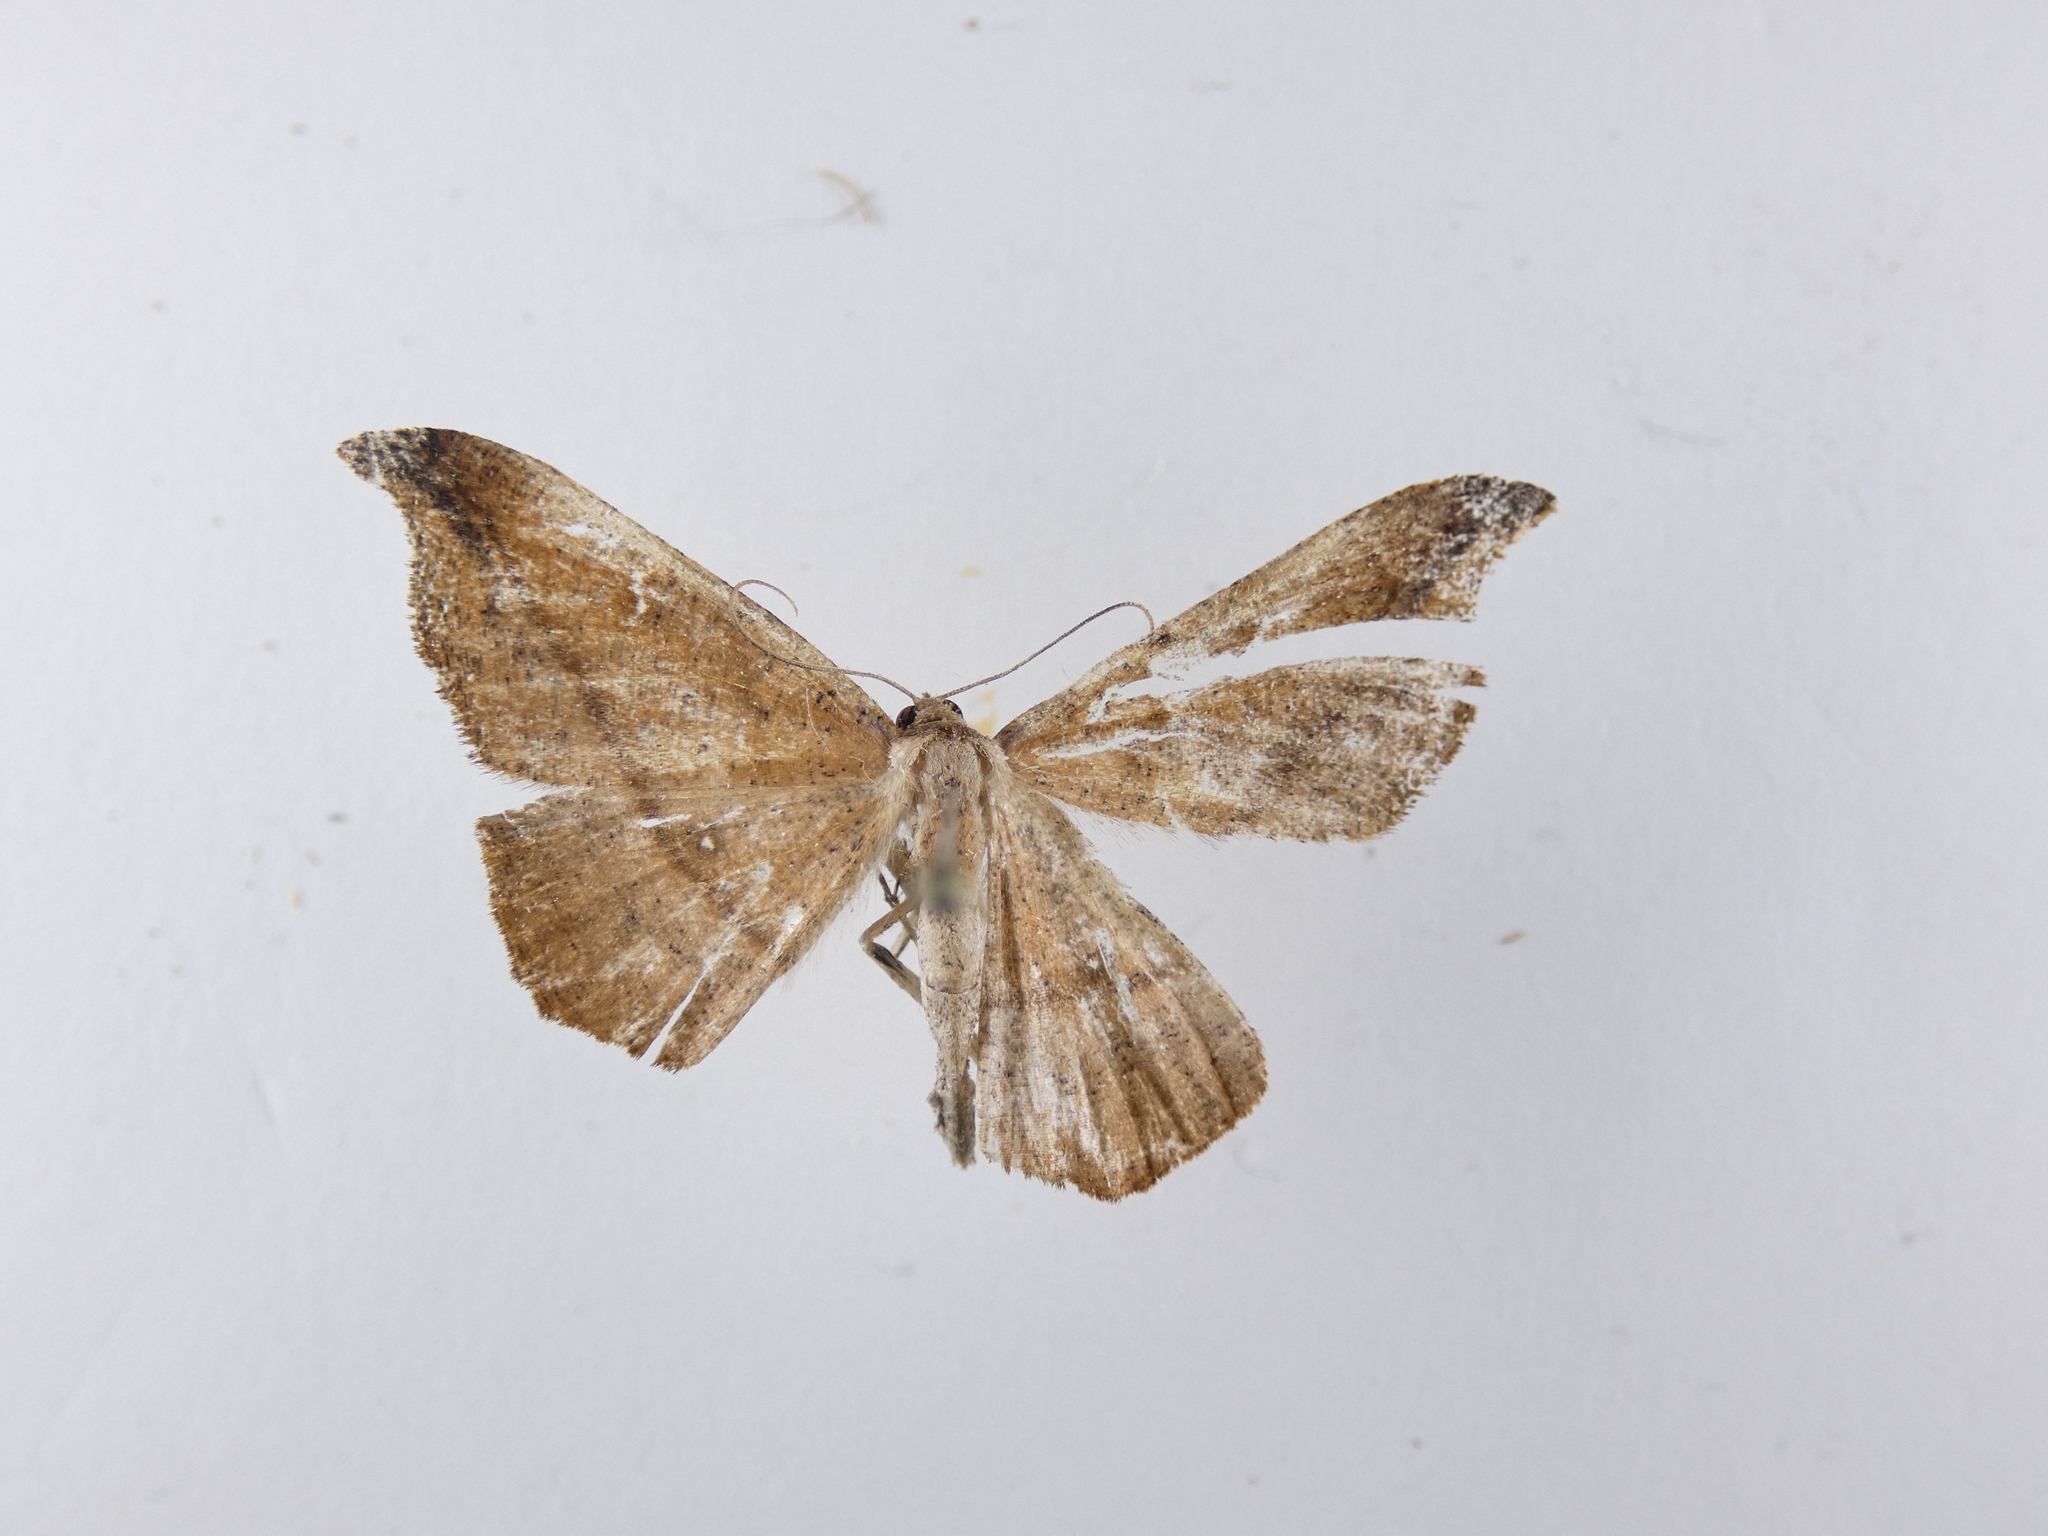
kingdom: Animalia
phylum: Arthropoda
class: Insecta
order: Lepidoptera
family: Geometridae
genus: Sarisa
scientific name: Sarisa muriferata
